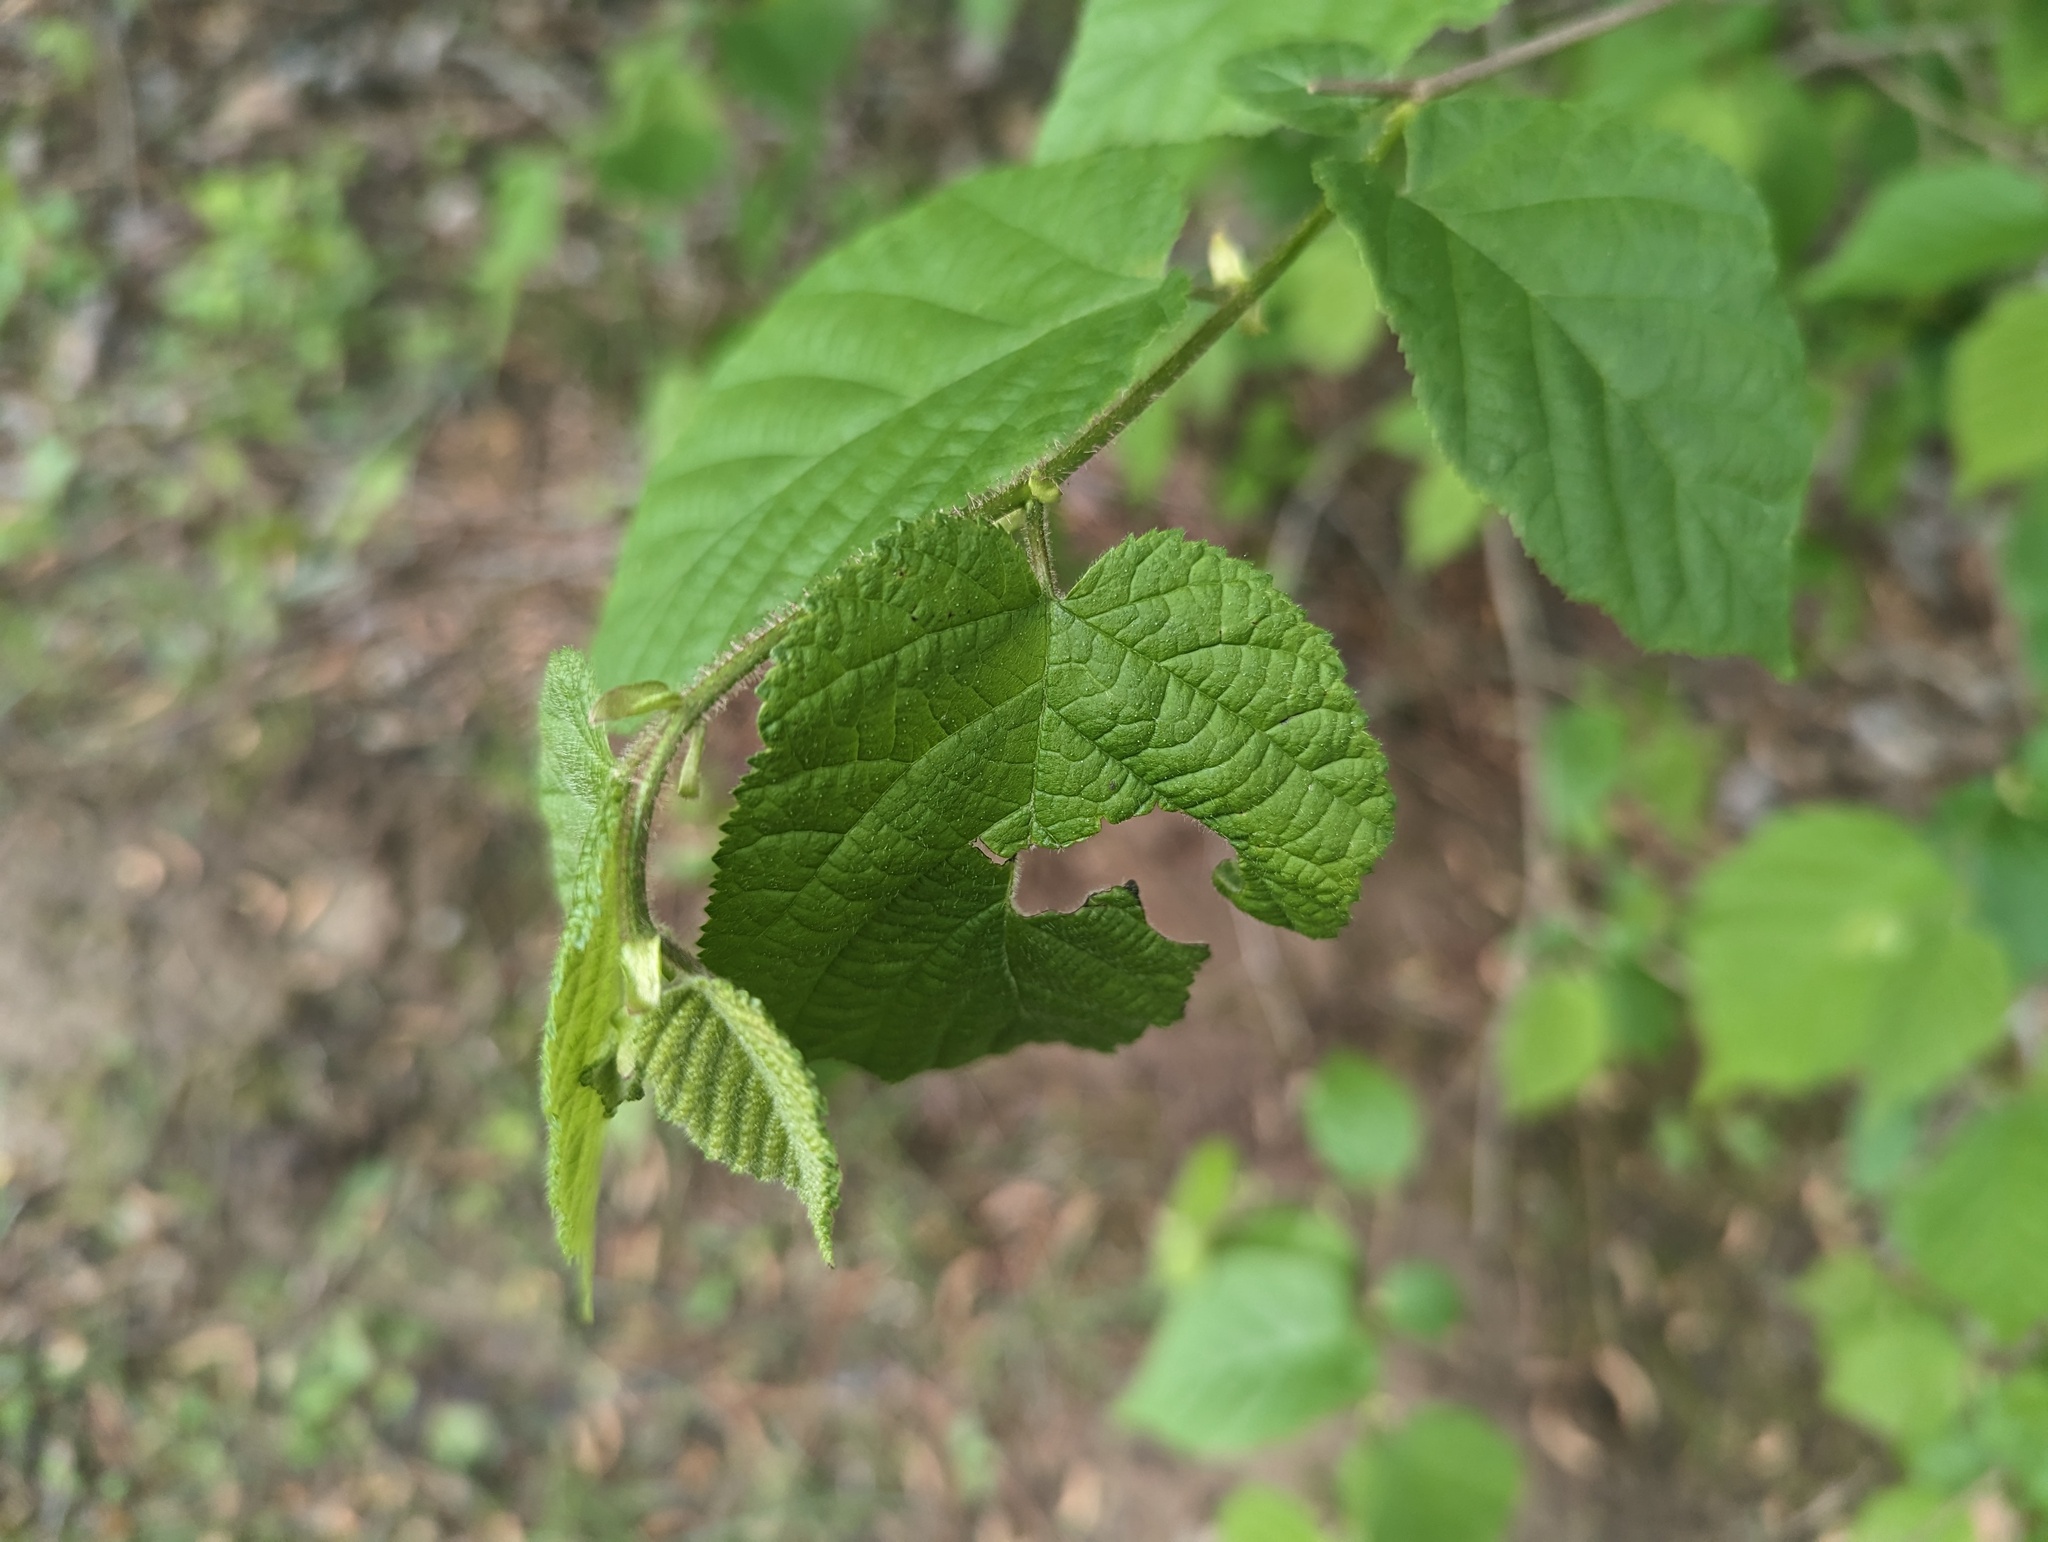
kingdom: Plantae
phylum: Tracheophyta
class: Magnoliopsida
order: Fagales
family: Betulaceae
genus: Corylus
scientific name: Corylus americana
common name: American hazel
